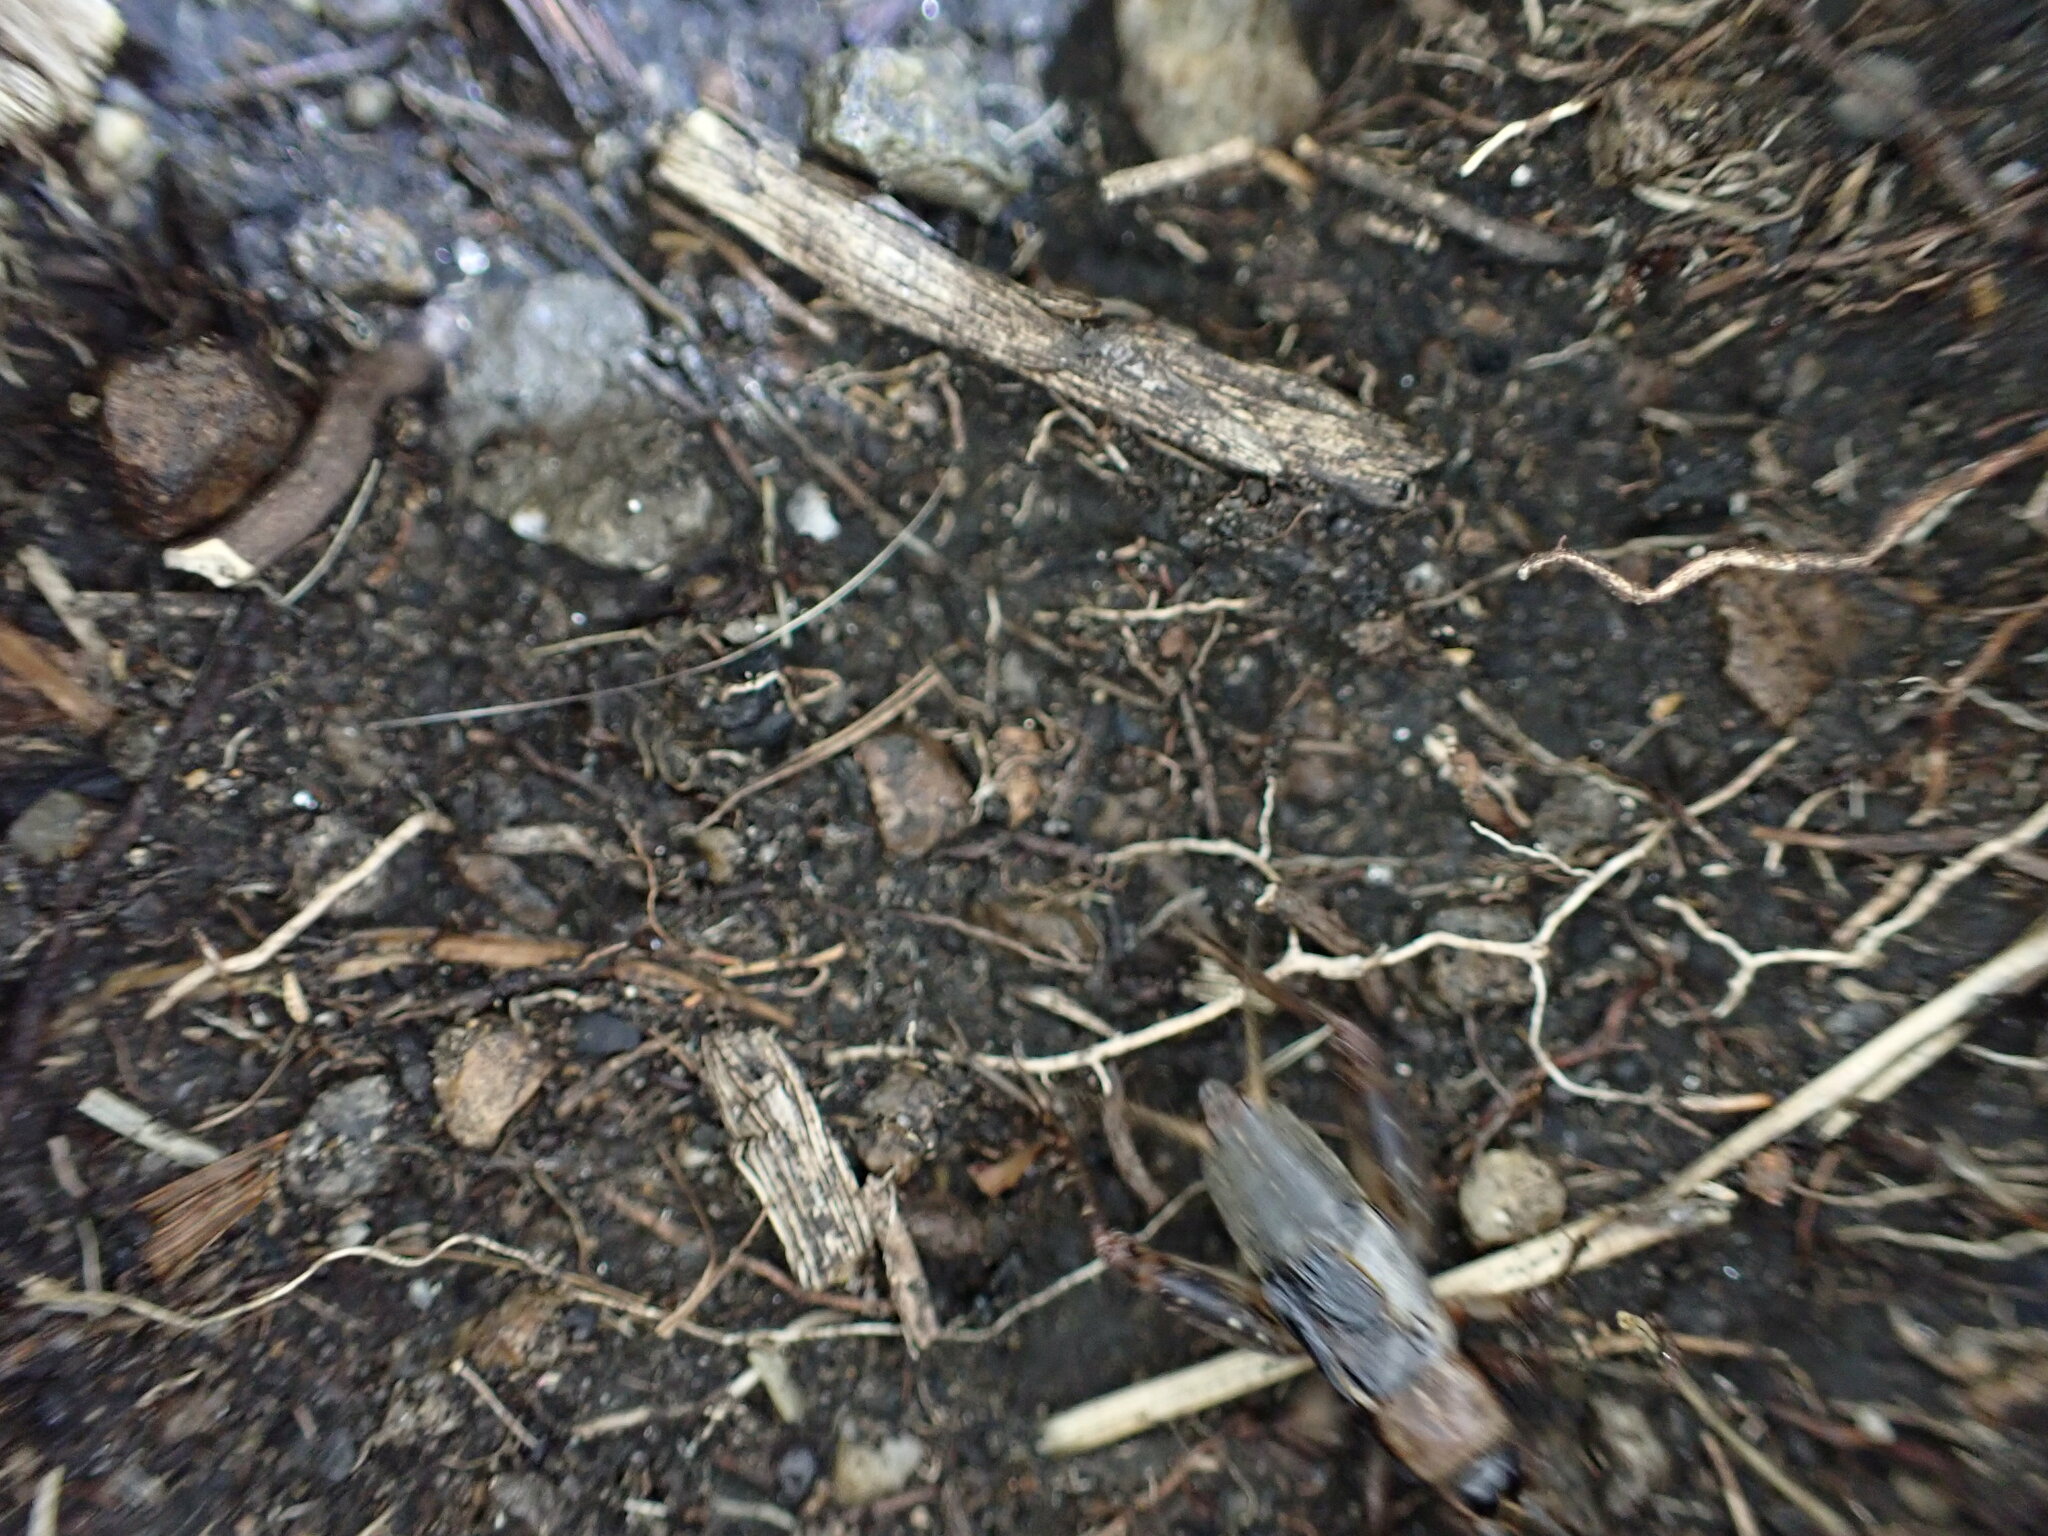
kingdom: Animalia
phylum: Arthropoda
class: Insecta
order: Orthoptera
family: Trigonidiidae
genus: Nemobius
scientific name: Nemobius sylvestris
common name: Wood-cricket
